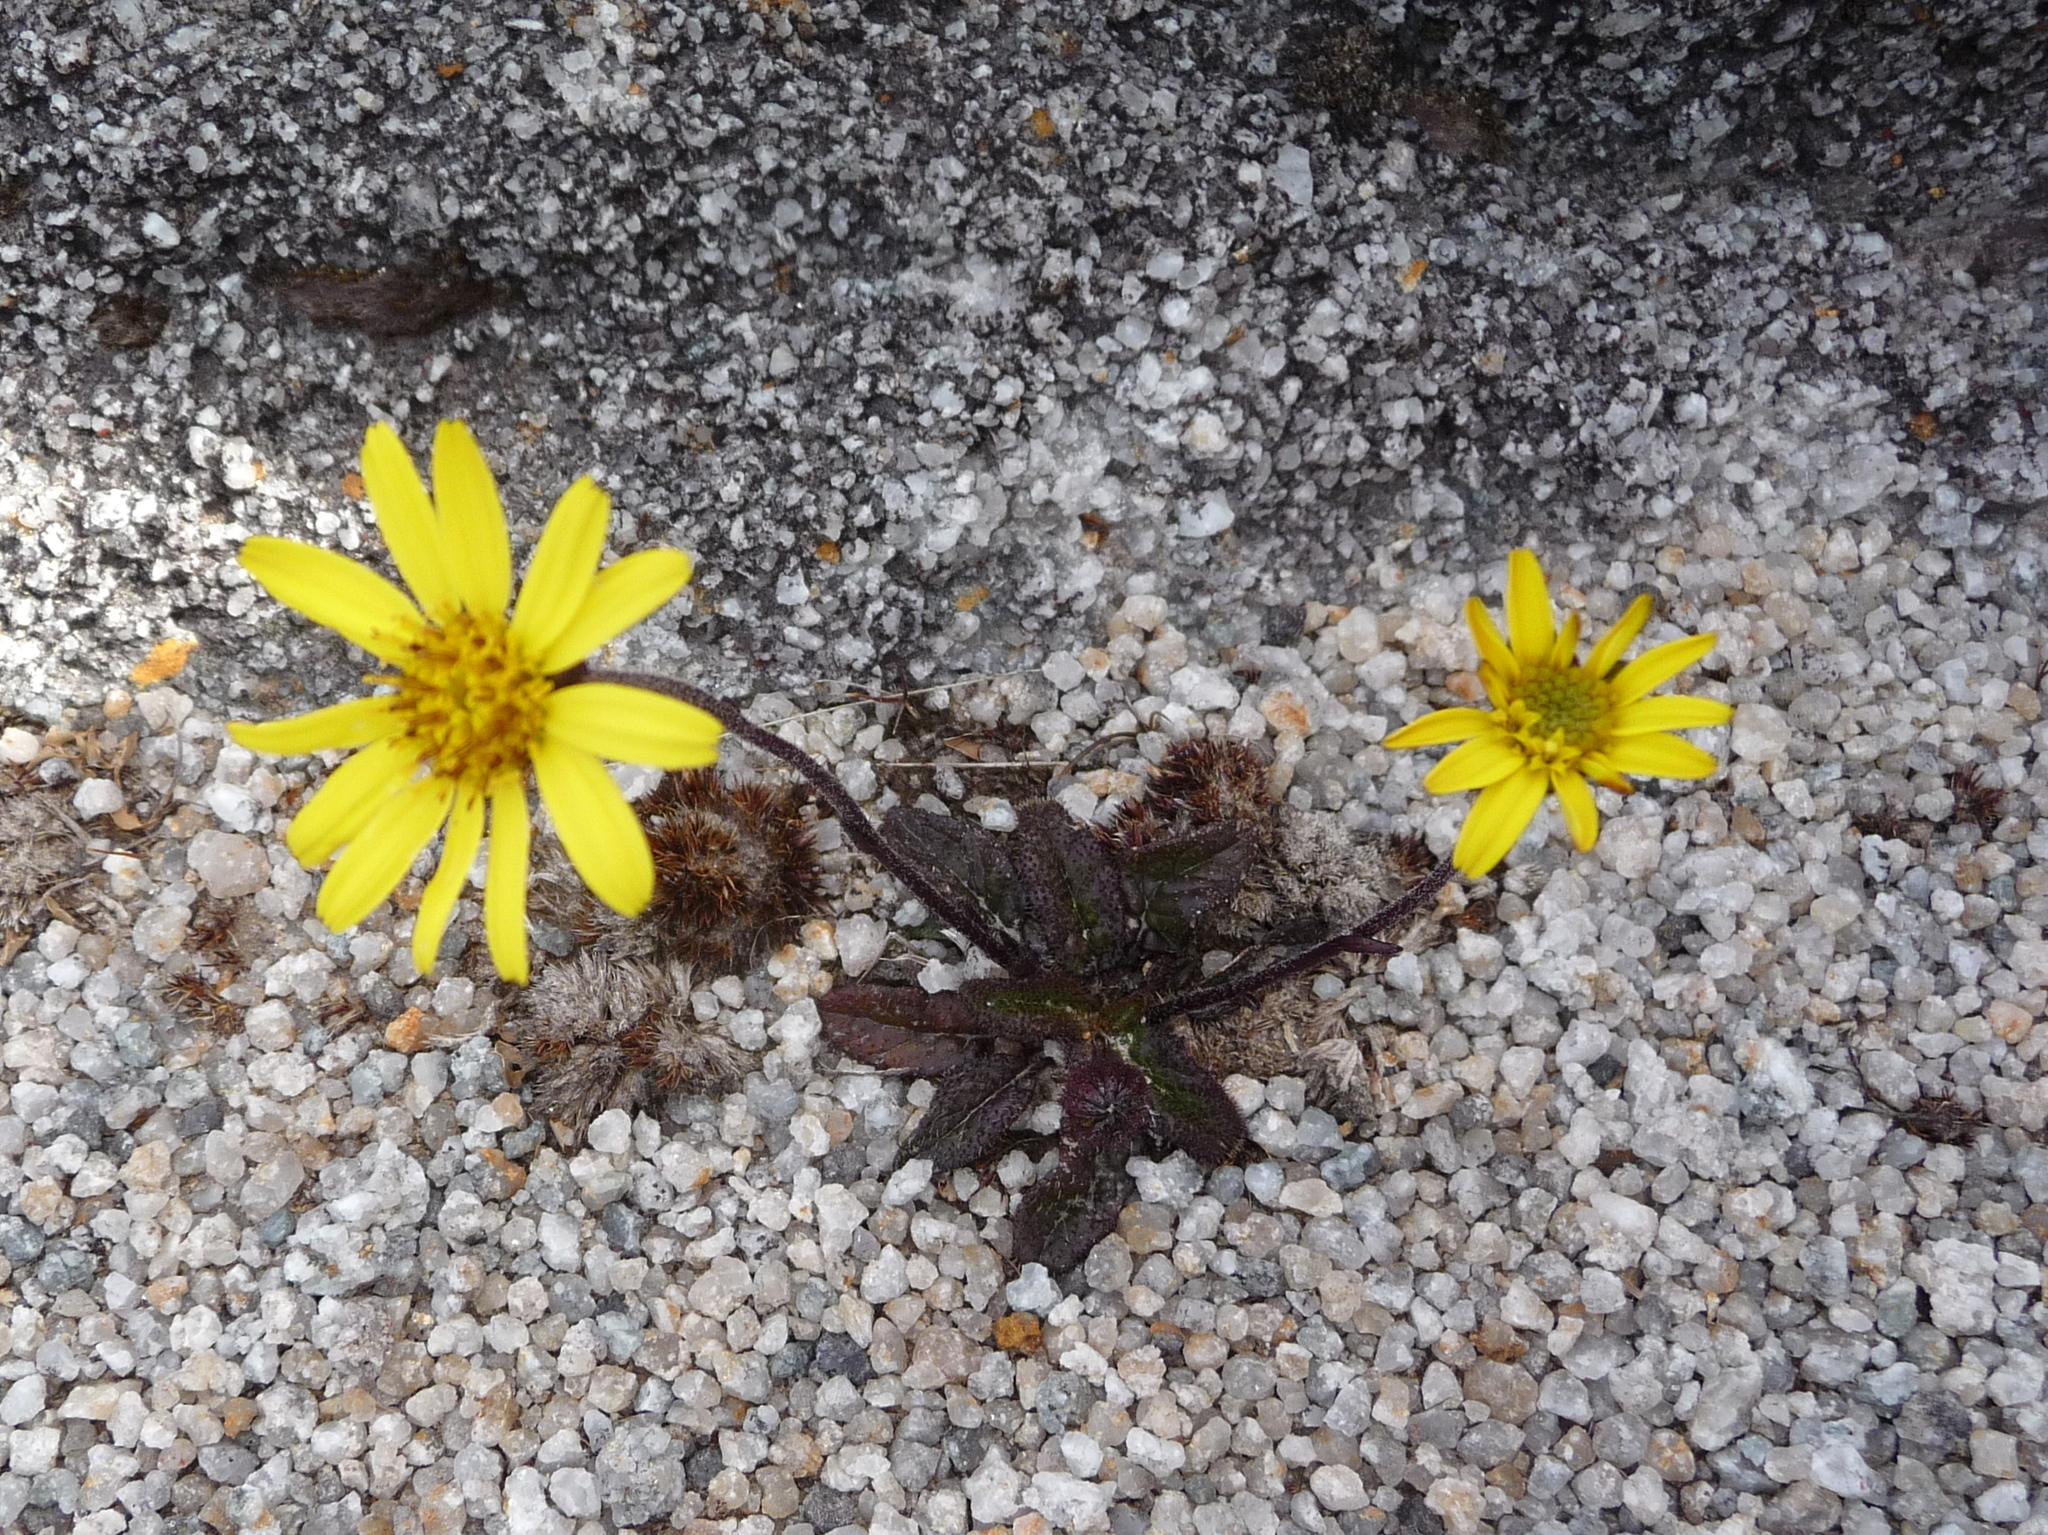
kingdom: Plantae
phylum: Tracheophyta
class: Magnoliopsida
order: Asterales
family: Asteraceae
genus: Brachyglottis
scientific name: Brachyglottis bellidioides
